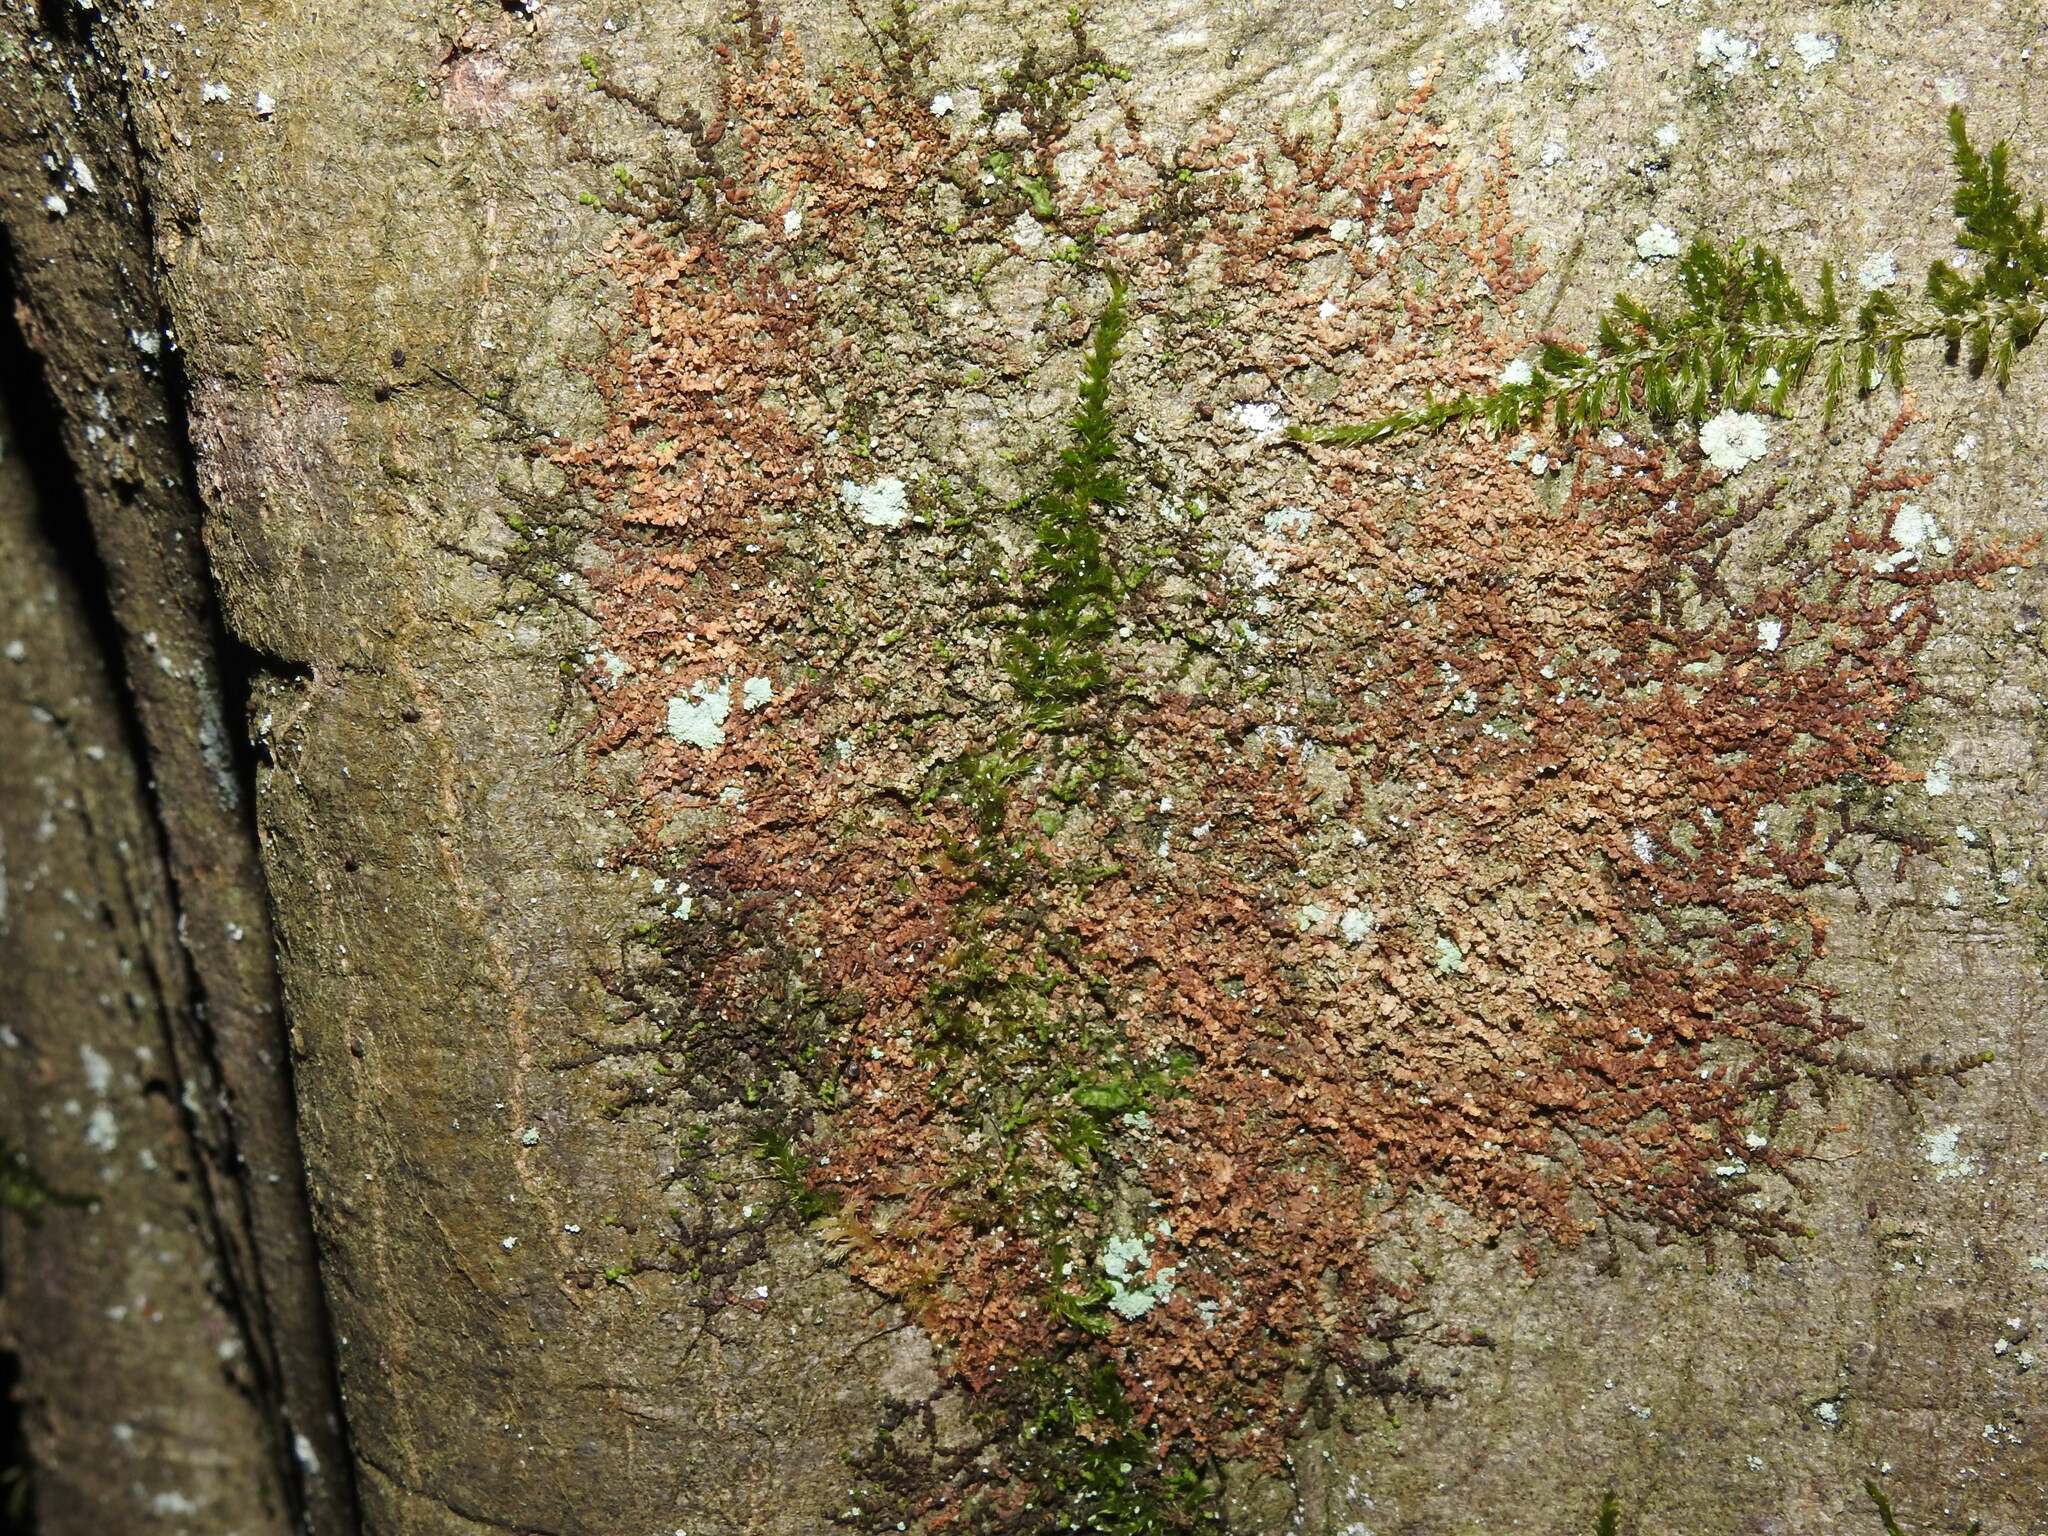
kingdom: Plantae
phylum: Marchantiophyta
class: Jungermanniopsida
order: Porellales
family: Frullaniaceae
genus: Frullania
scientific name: Frullania dilatata
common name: Dilated scalewort
